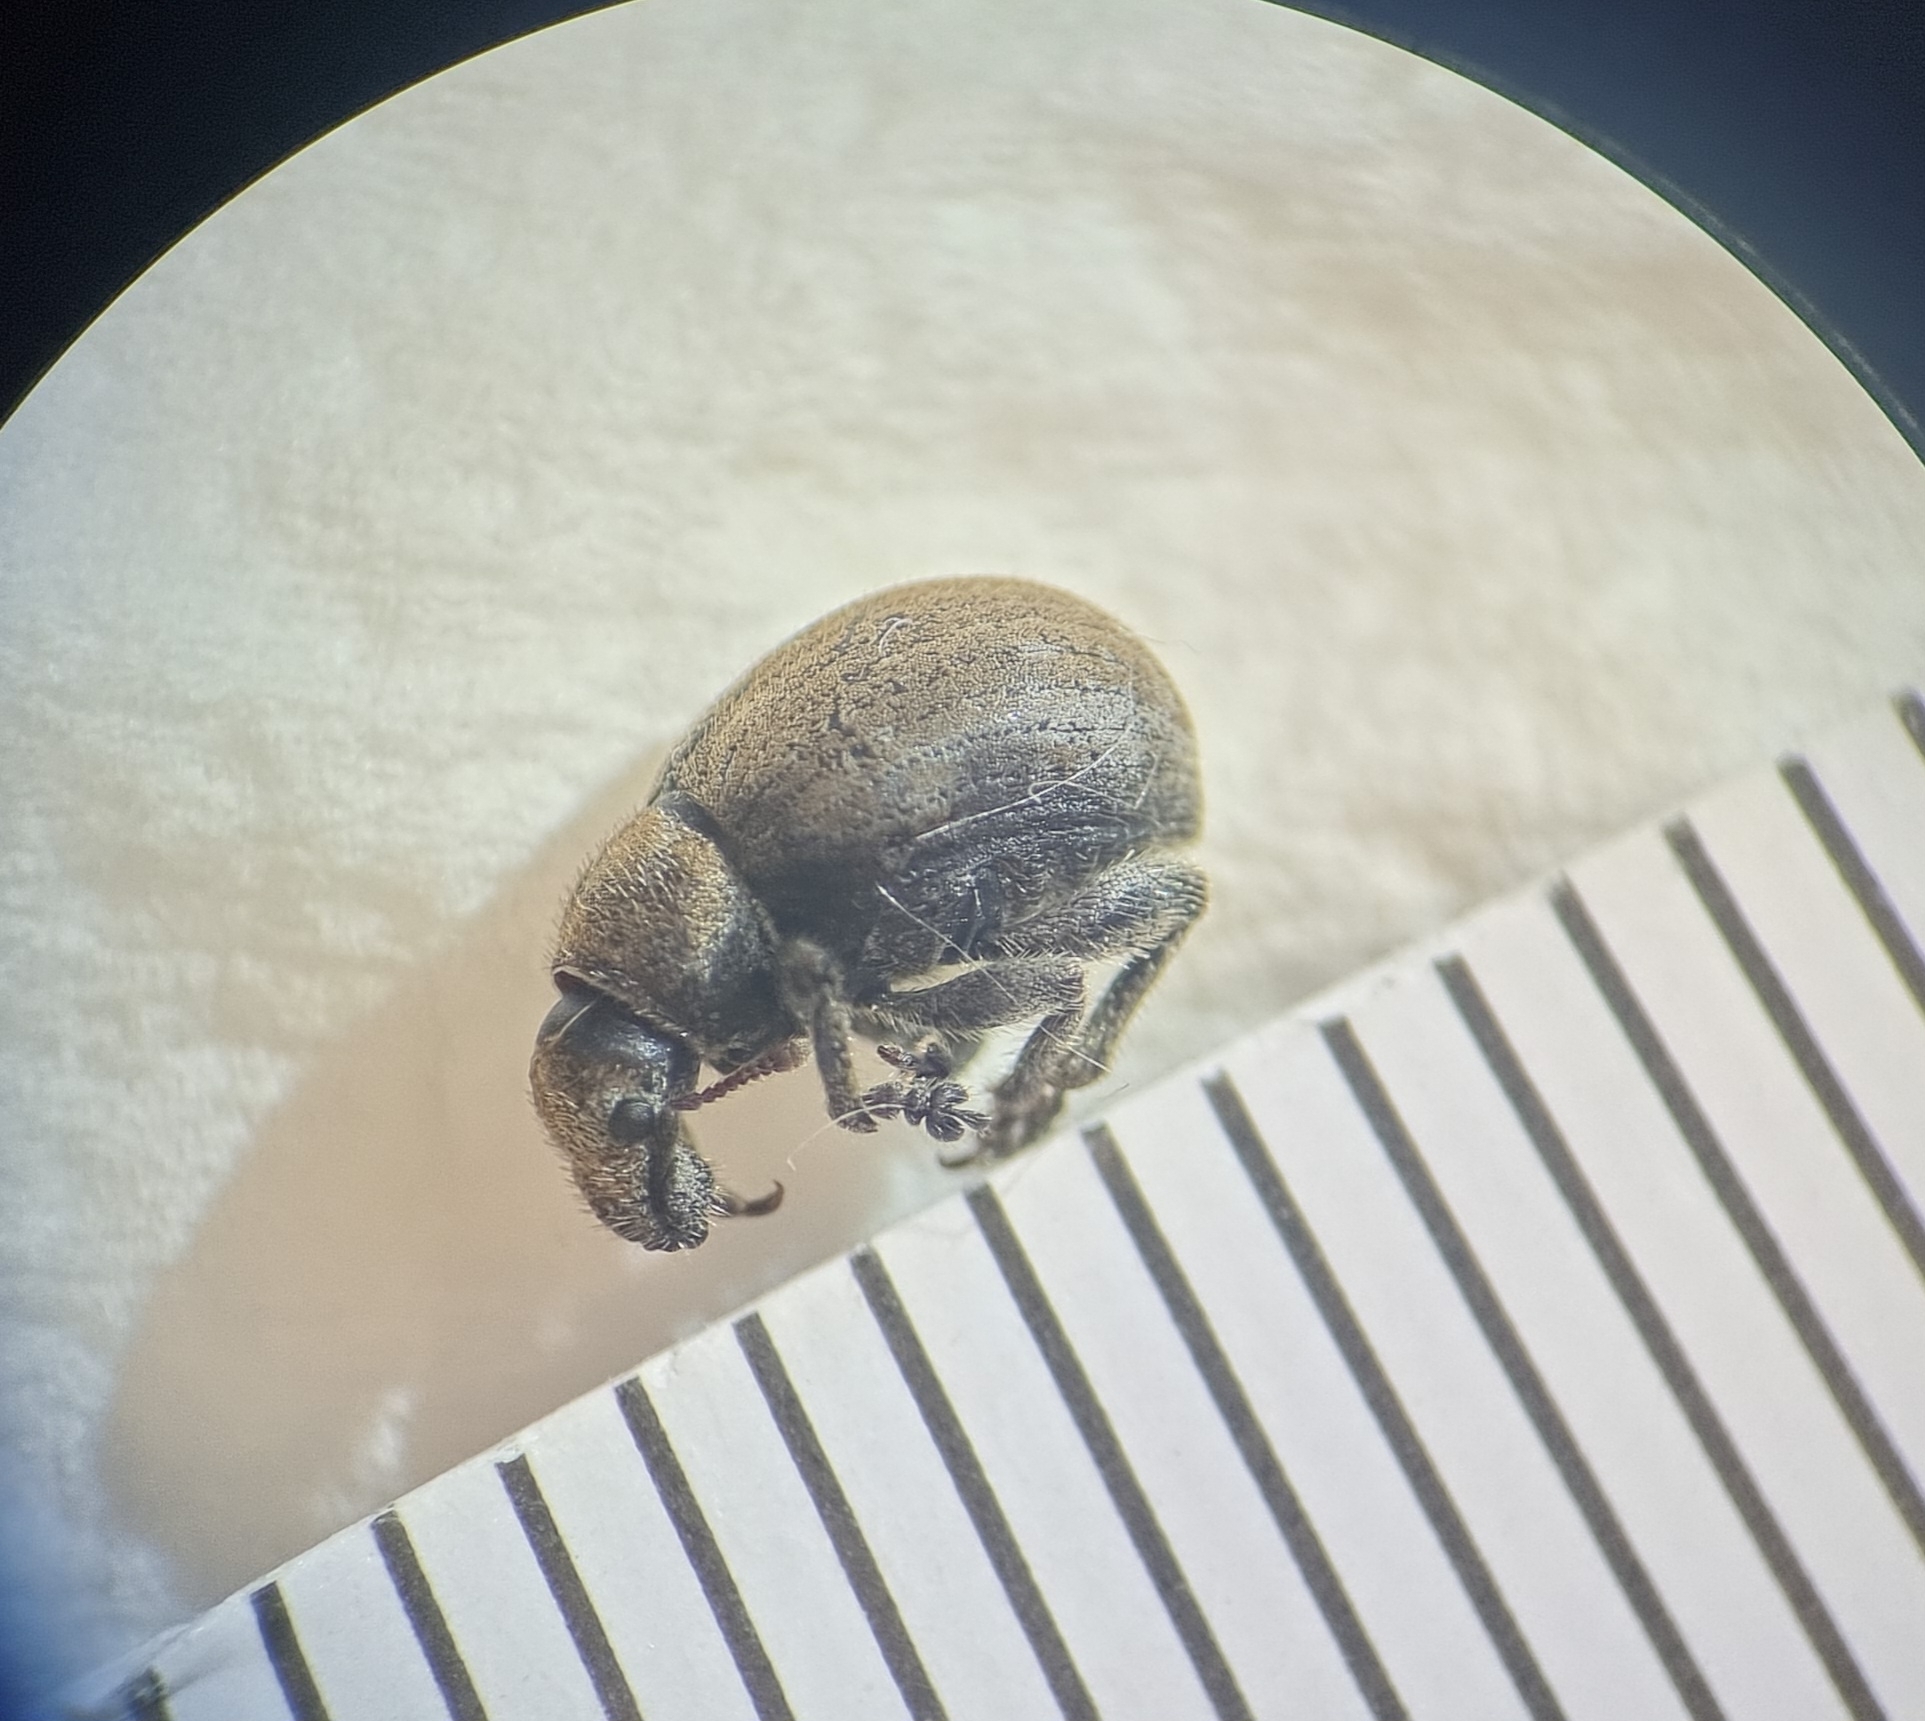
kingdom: Animalia
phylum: Arthropoda
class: Insecta
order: Coleoptera
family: Curculionidae
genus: Philopedon
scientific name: Philopedon plagiatum
